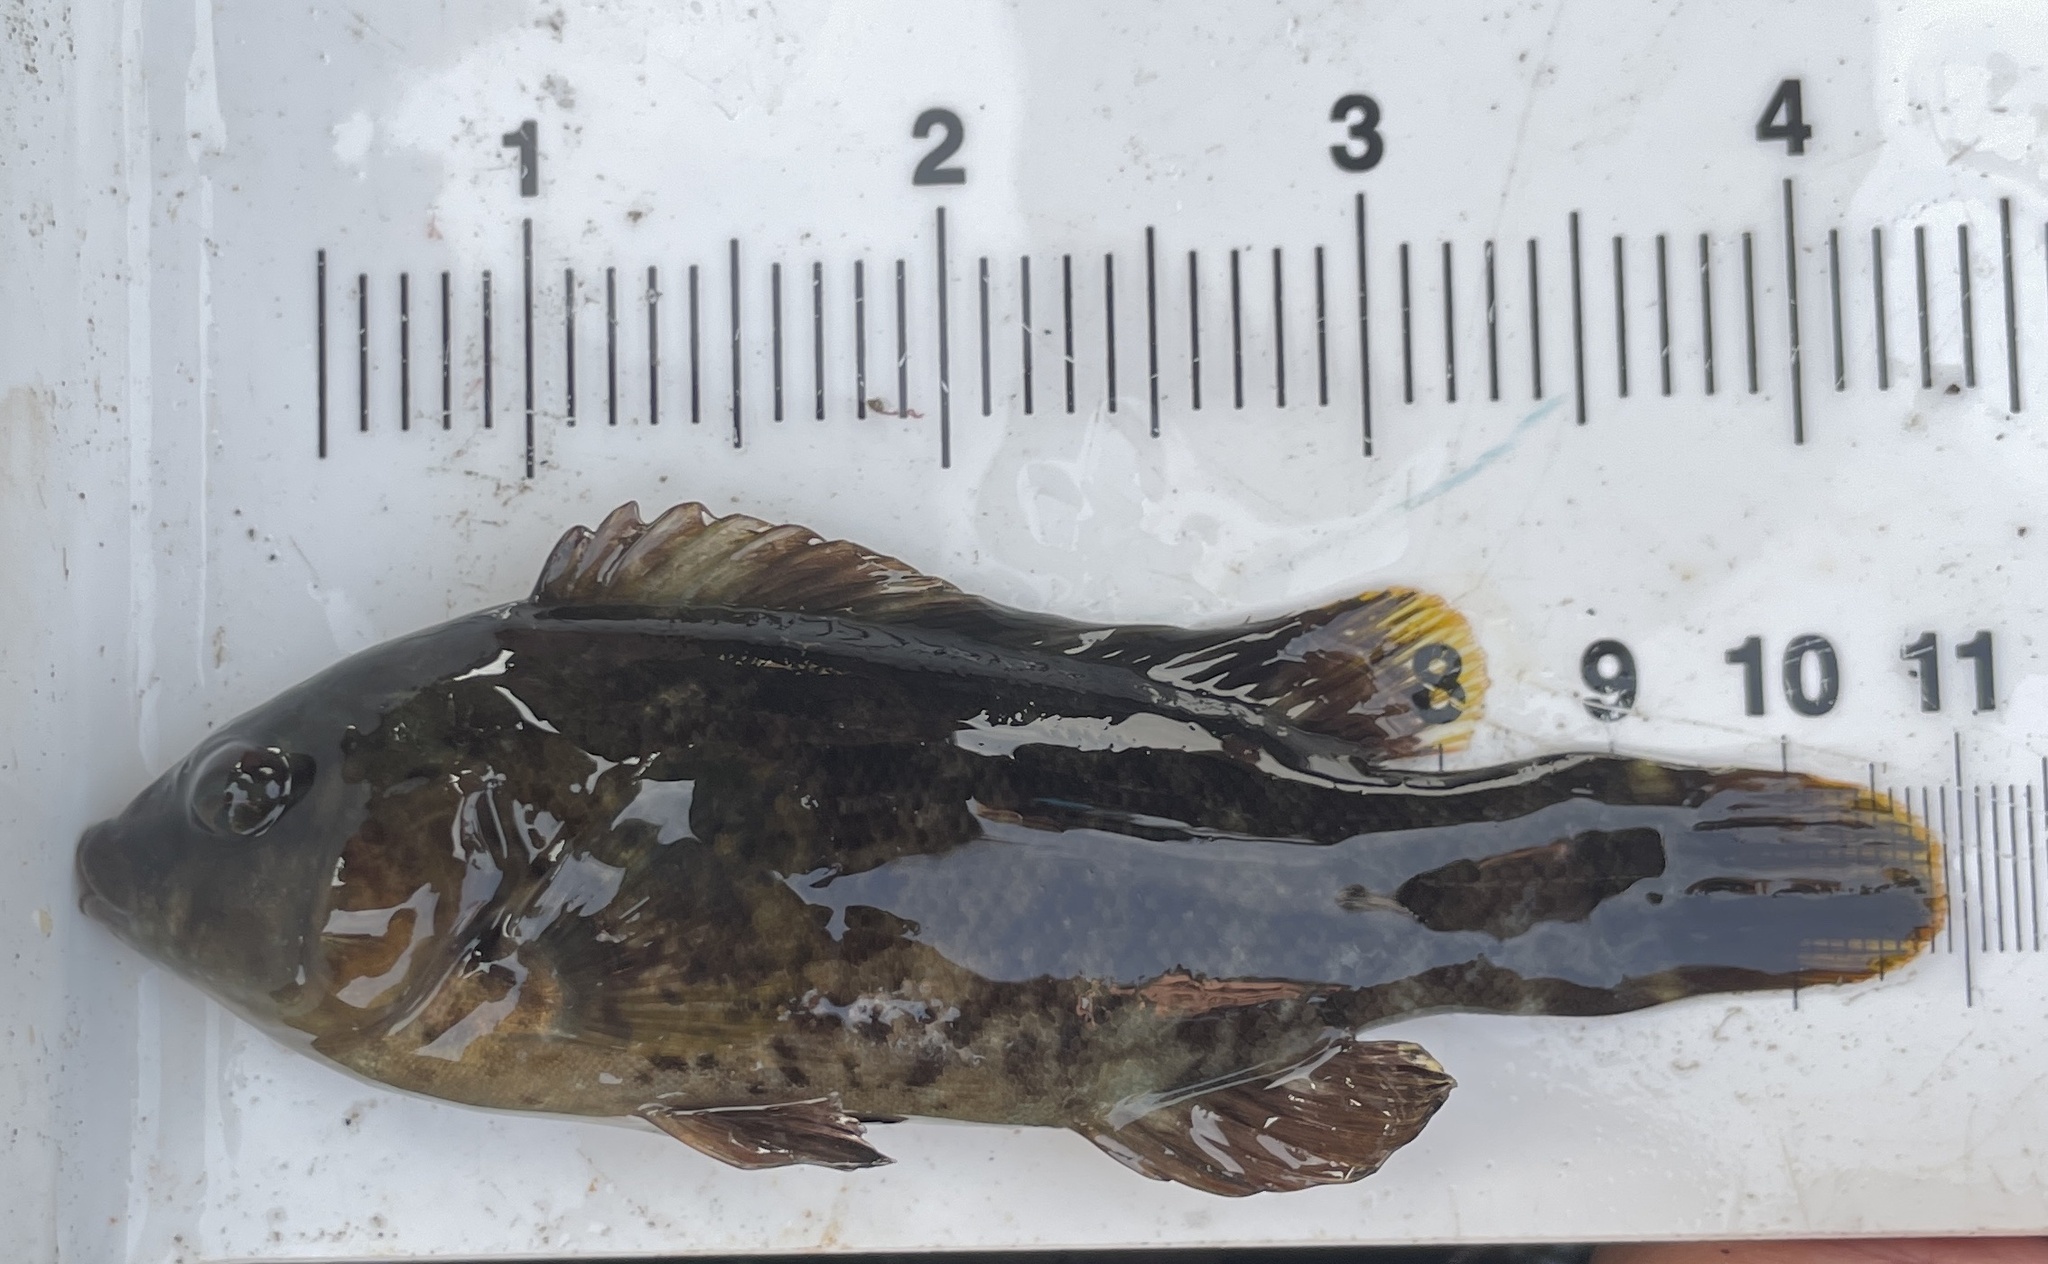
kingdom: Animalia
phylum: Chordata
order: Perciformes
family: Labridae
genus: Tautoga
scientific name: Tautoga onitis
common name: Tautog
